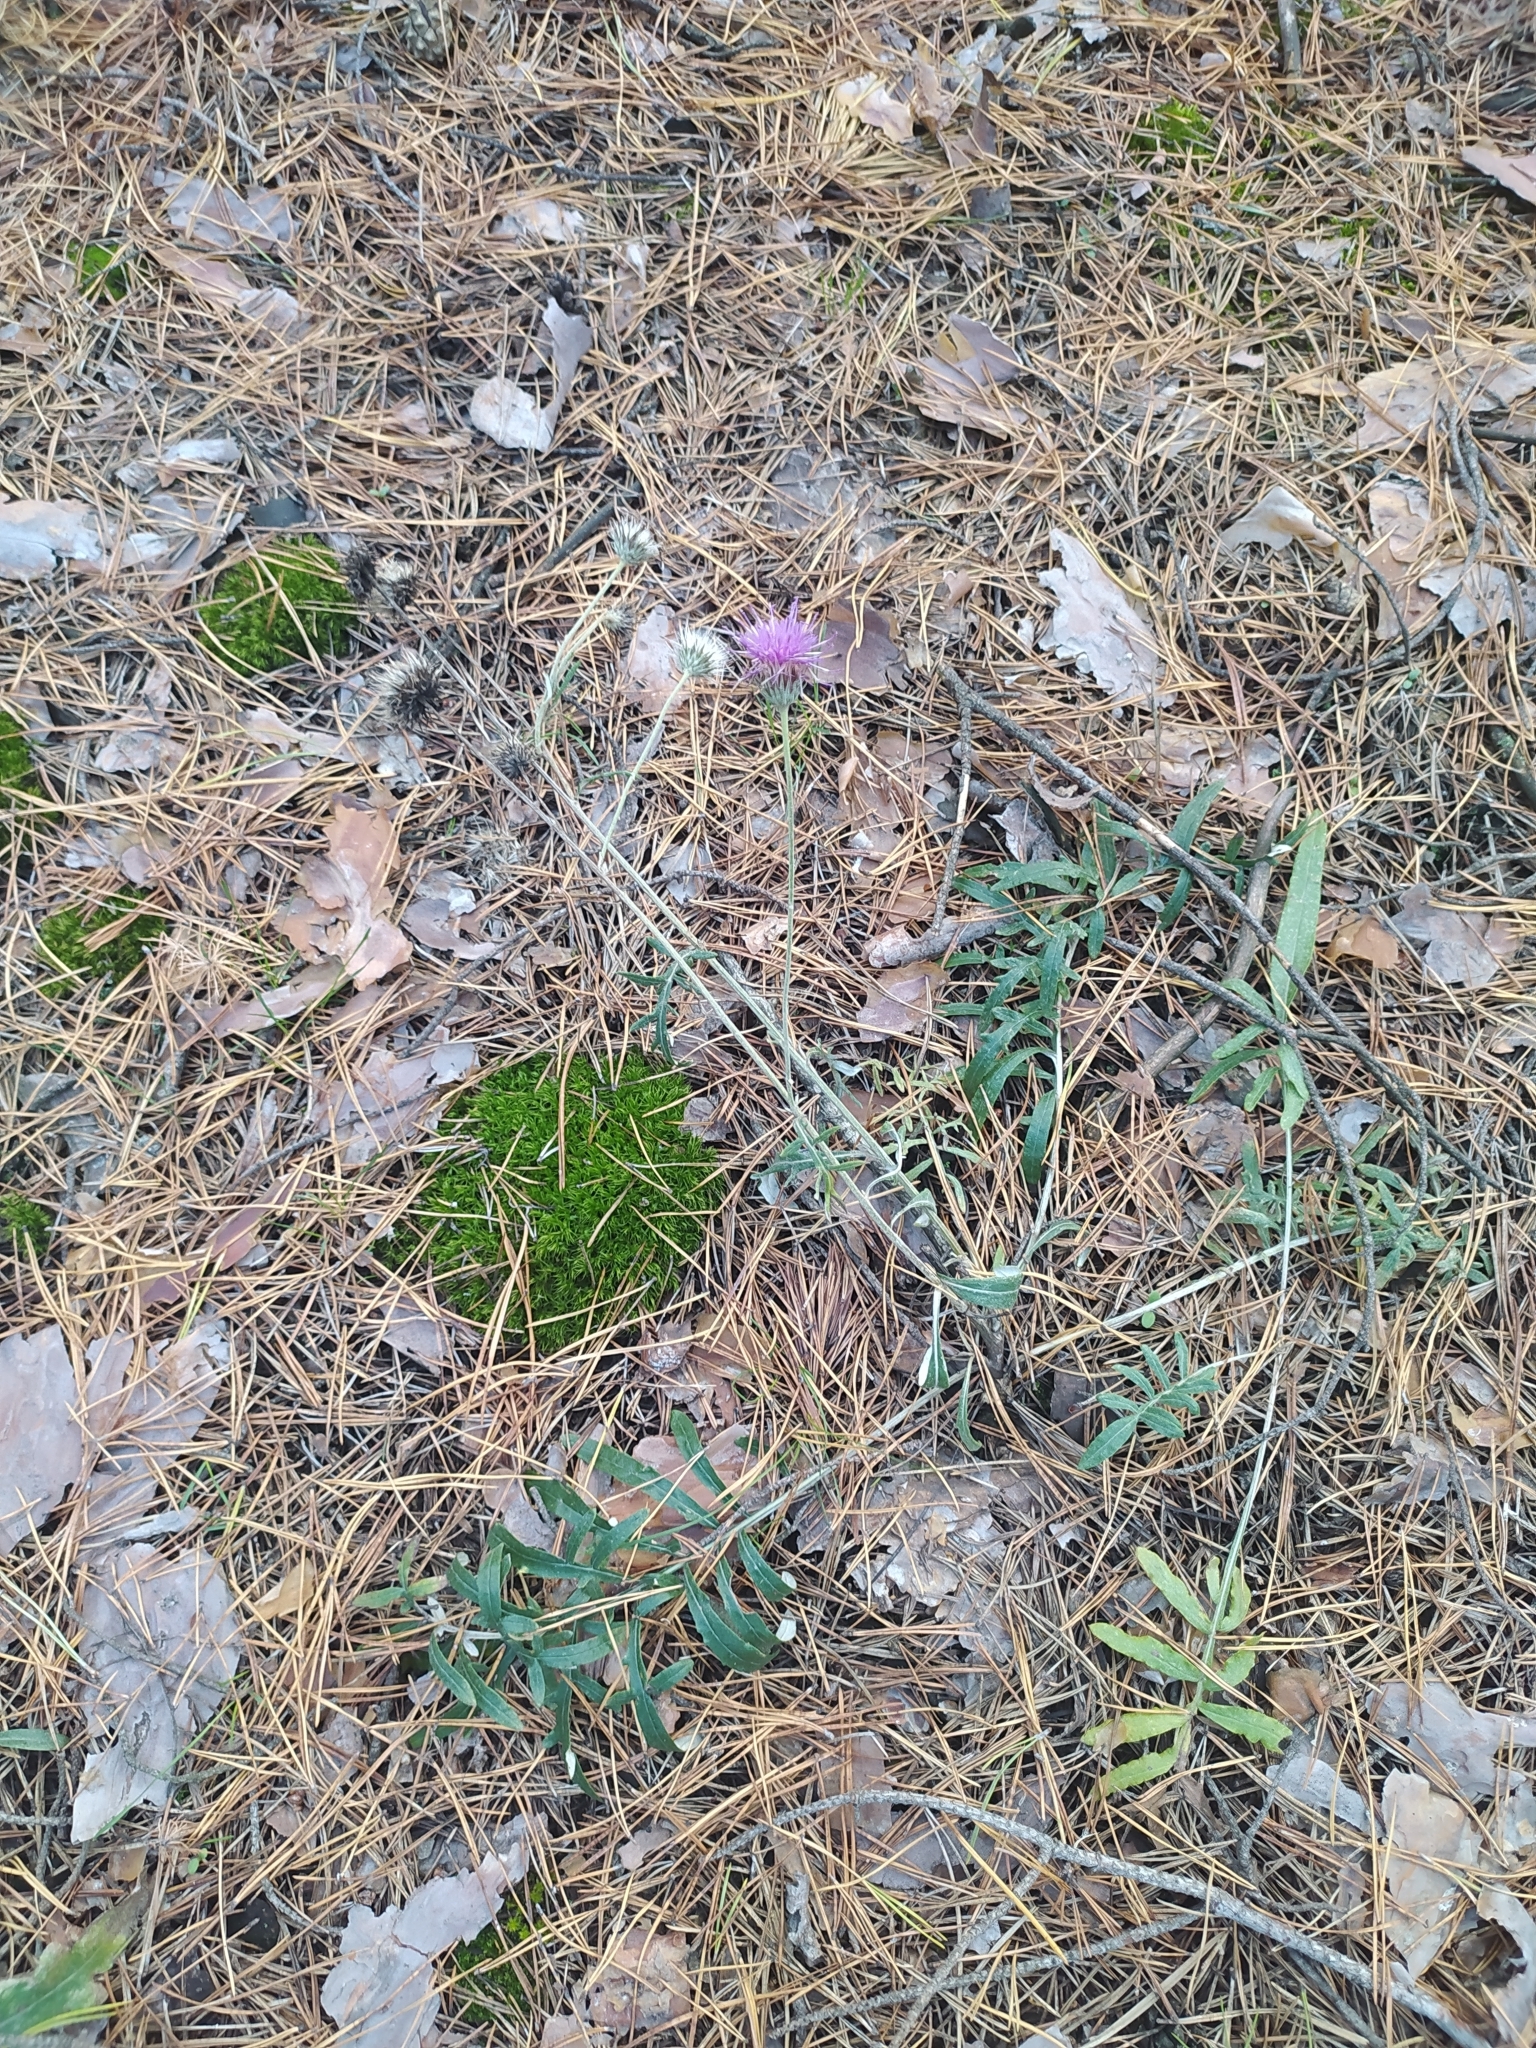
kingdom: Plantae
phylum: Tracheophyta
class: Magnoliopsida
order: Asterales
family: Asteraceae
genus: Jurinea
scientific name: Jurinea cyanoides
